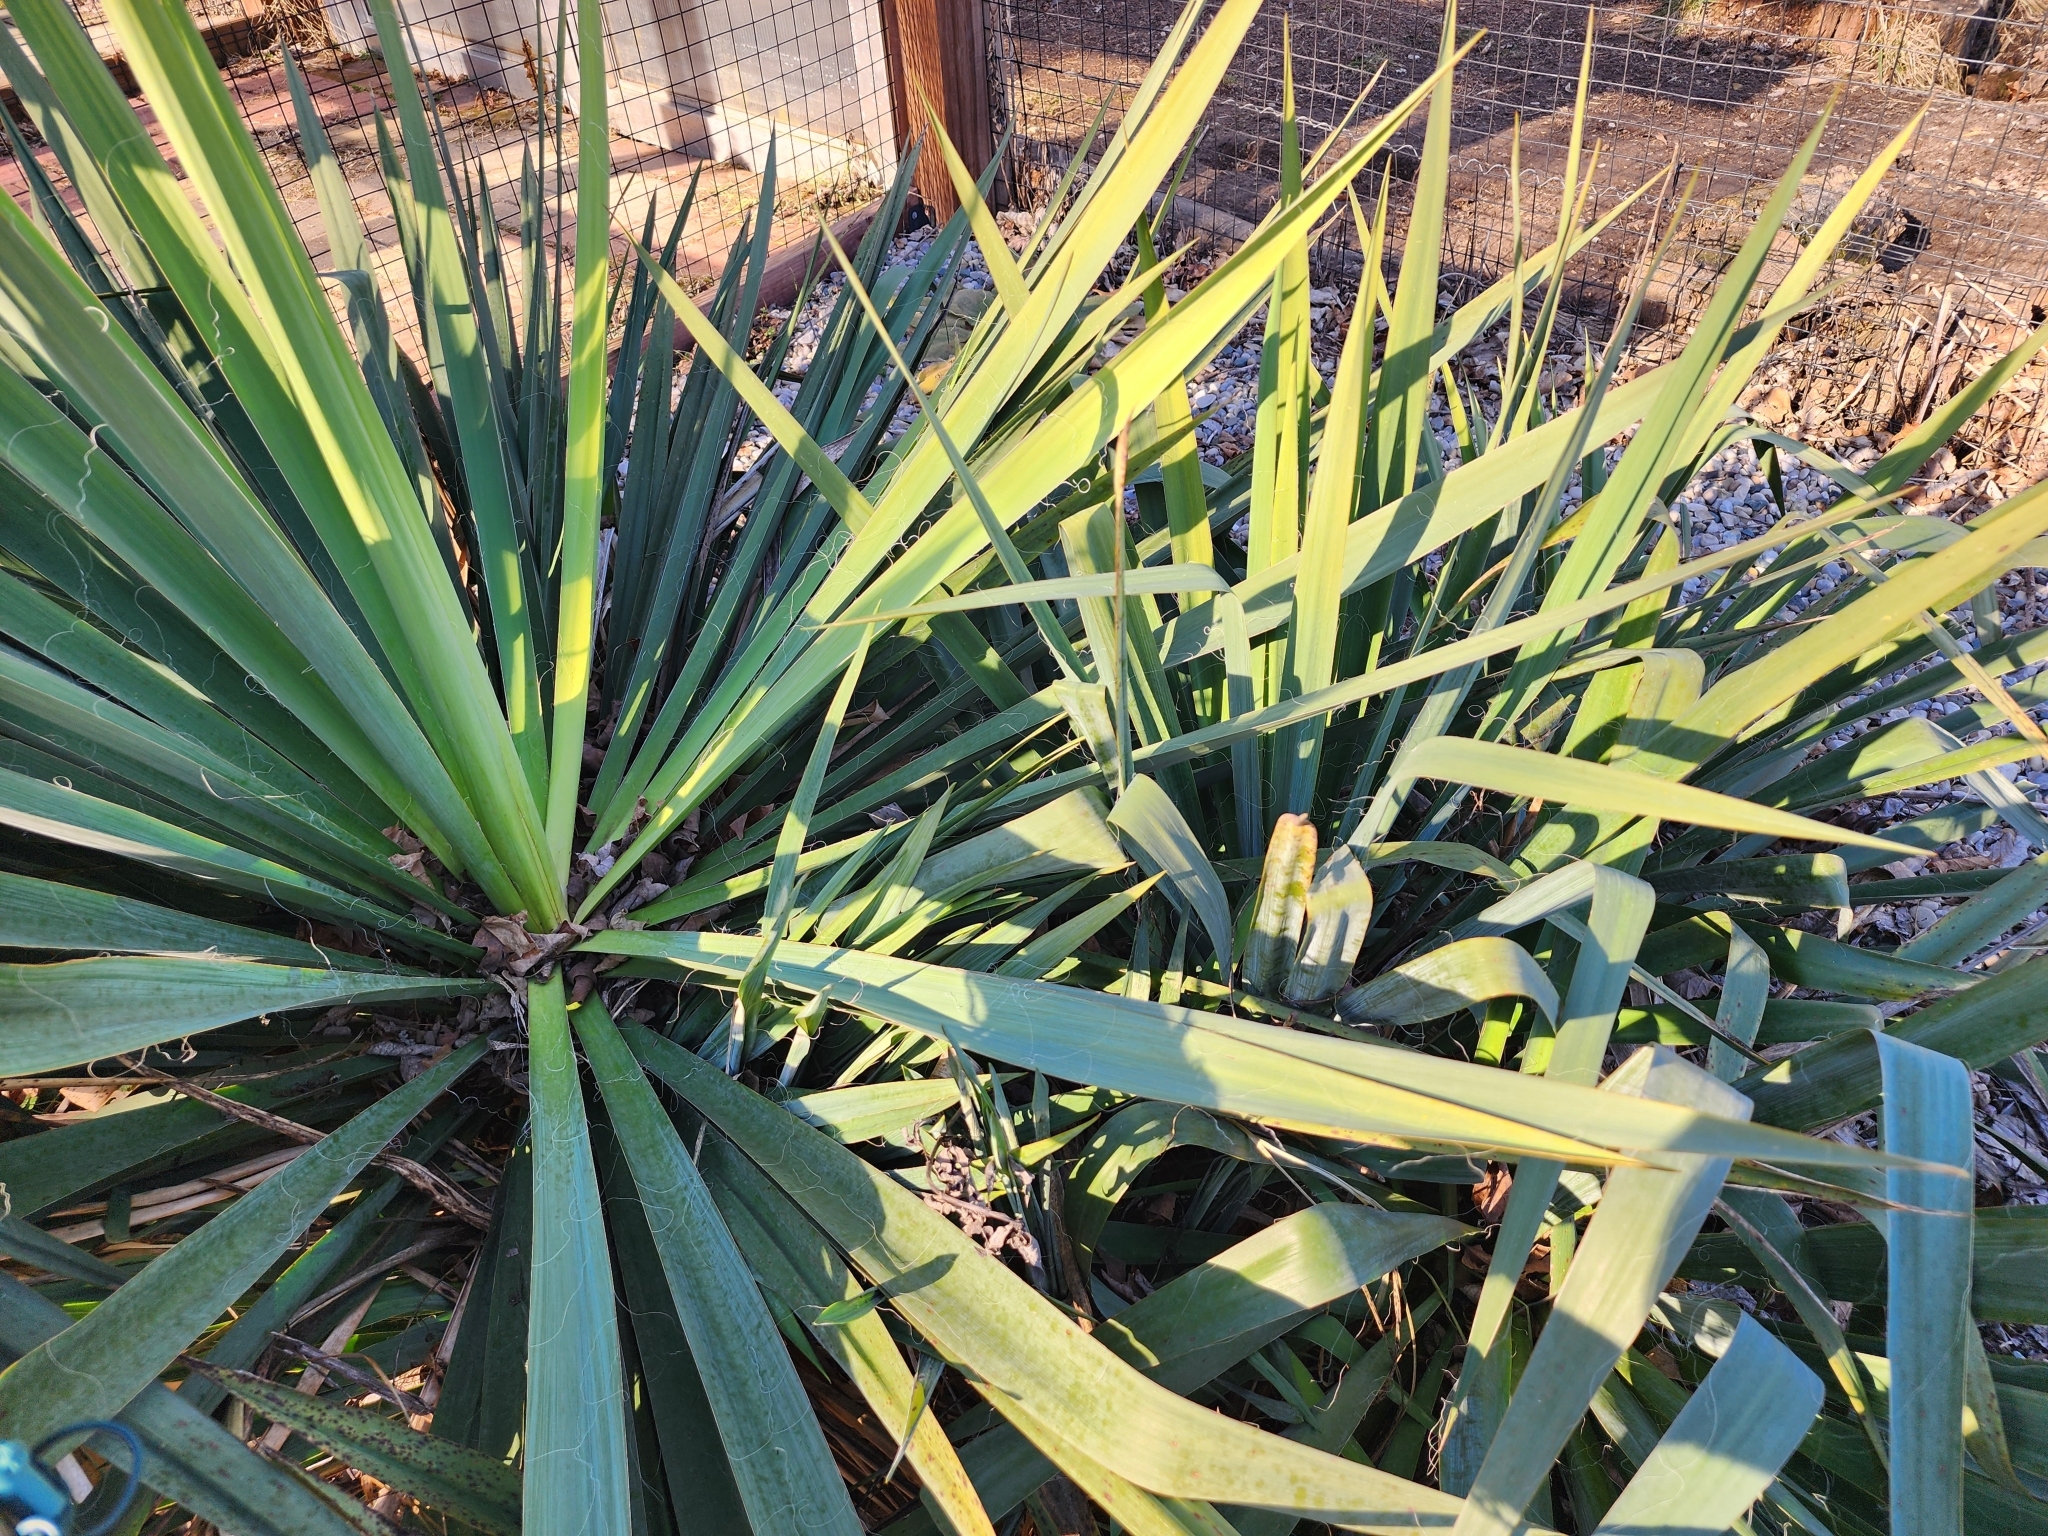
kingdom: Plantae
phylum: Tracheophyta
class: Liliopsida
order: Asparagales
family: Asparagaceae
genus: Yucca
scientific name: Yucca filamentosa
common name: Adam's-needle
